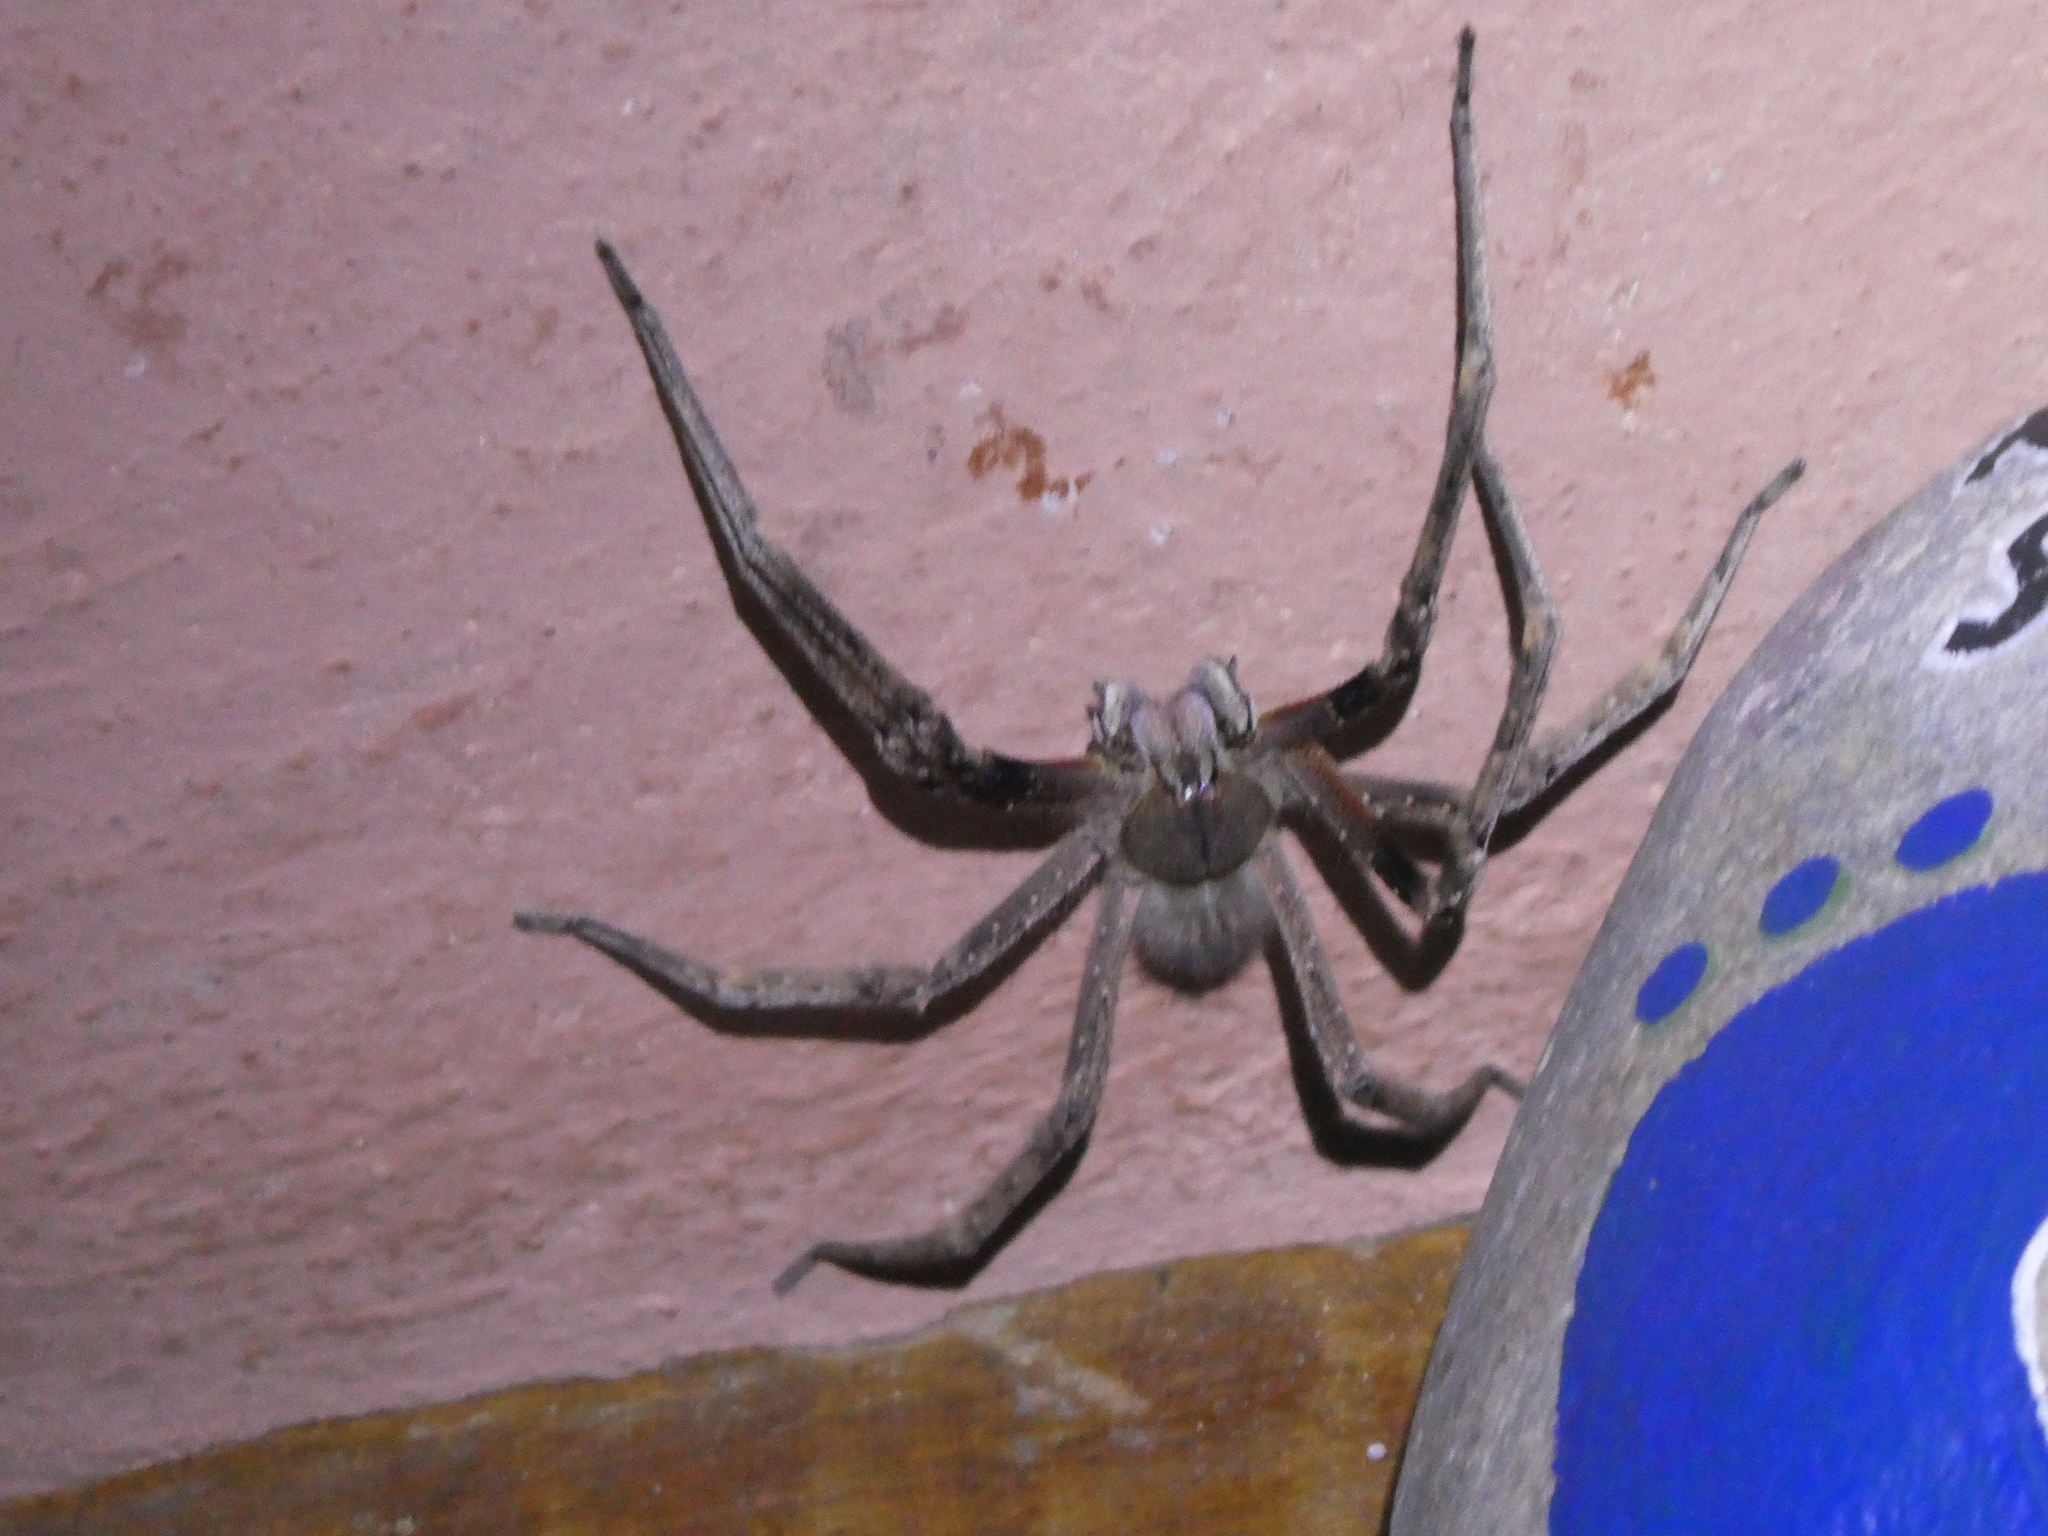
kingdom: Animalia
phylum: Arthropoda
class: Arachnida
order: Araneae
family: Ctenidae
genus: Phoneutria
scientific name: Phoneutria fera
